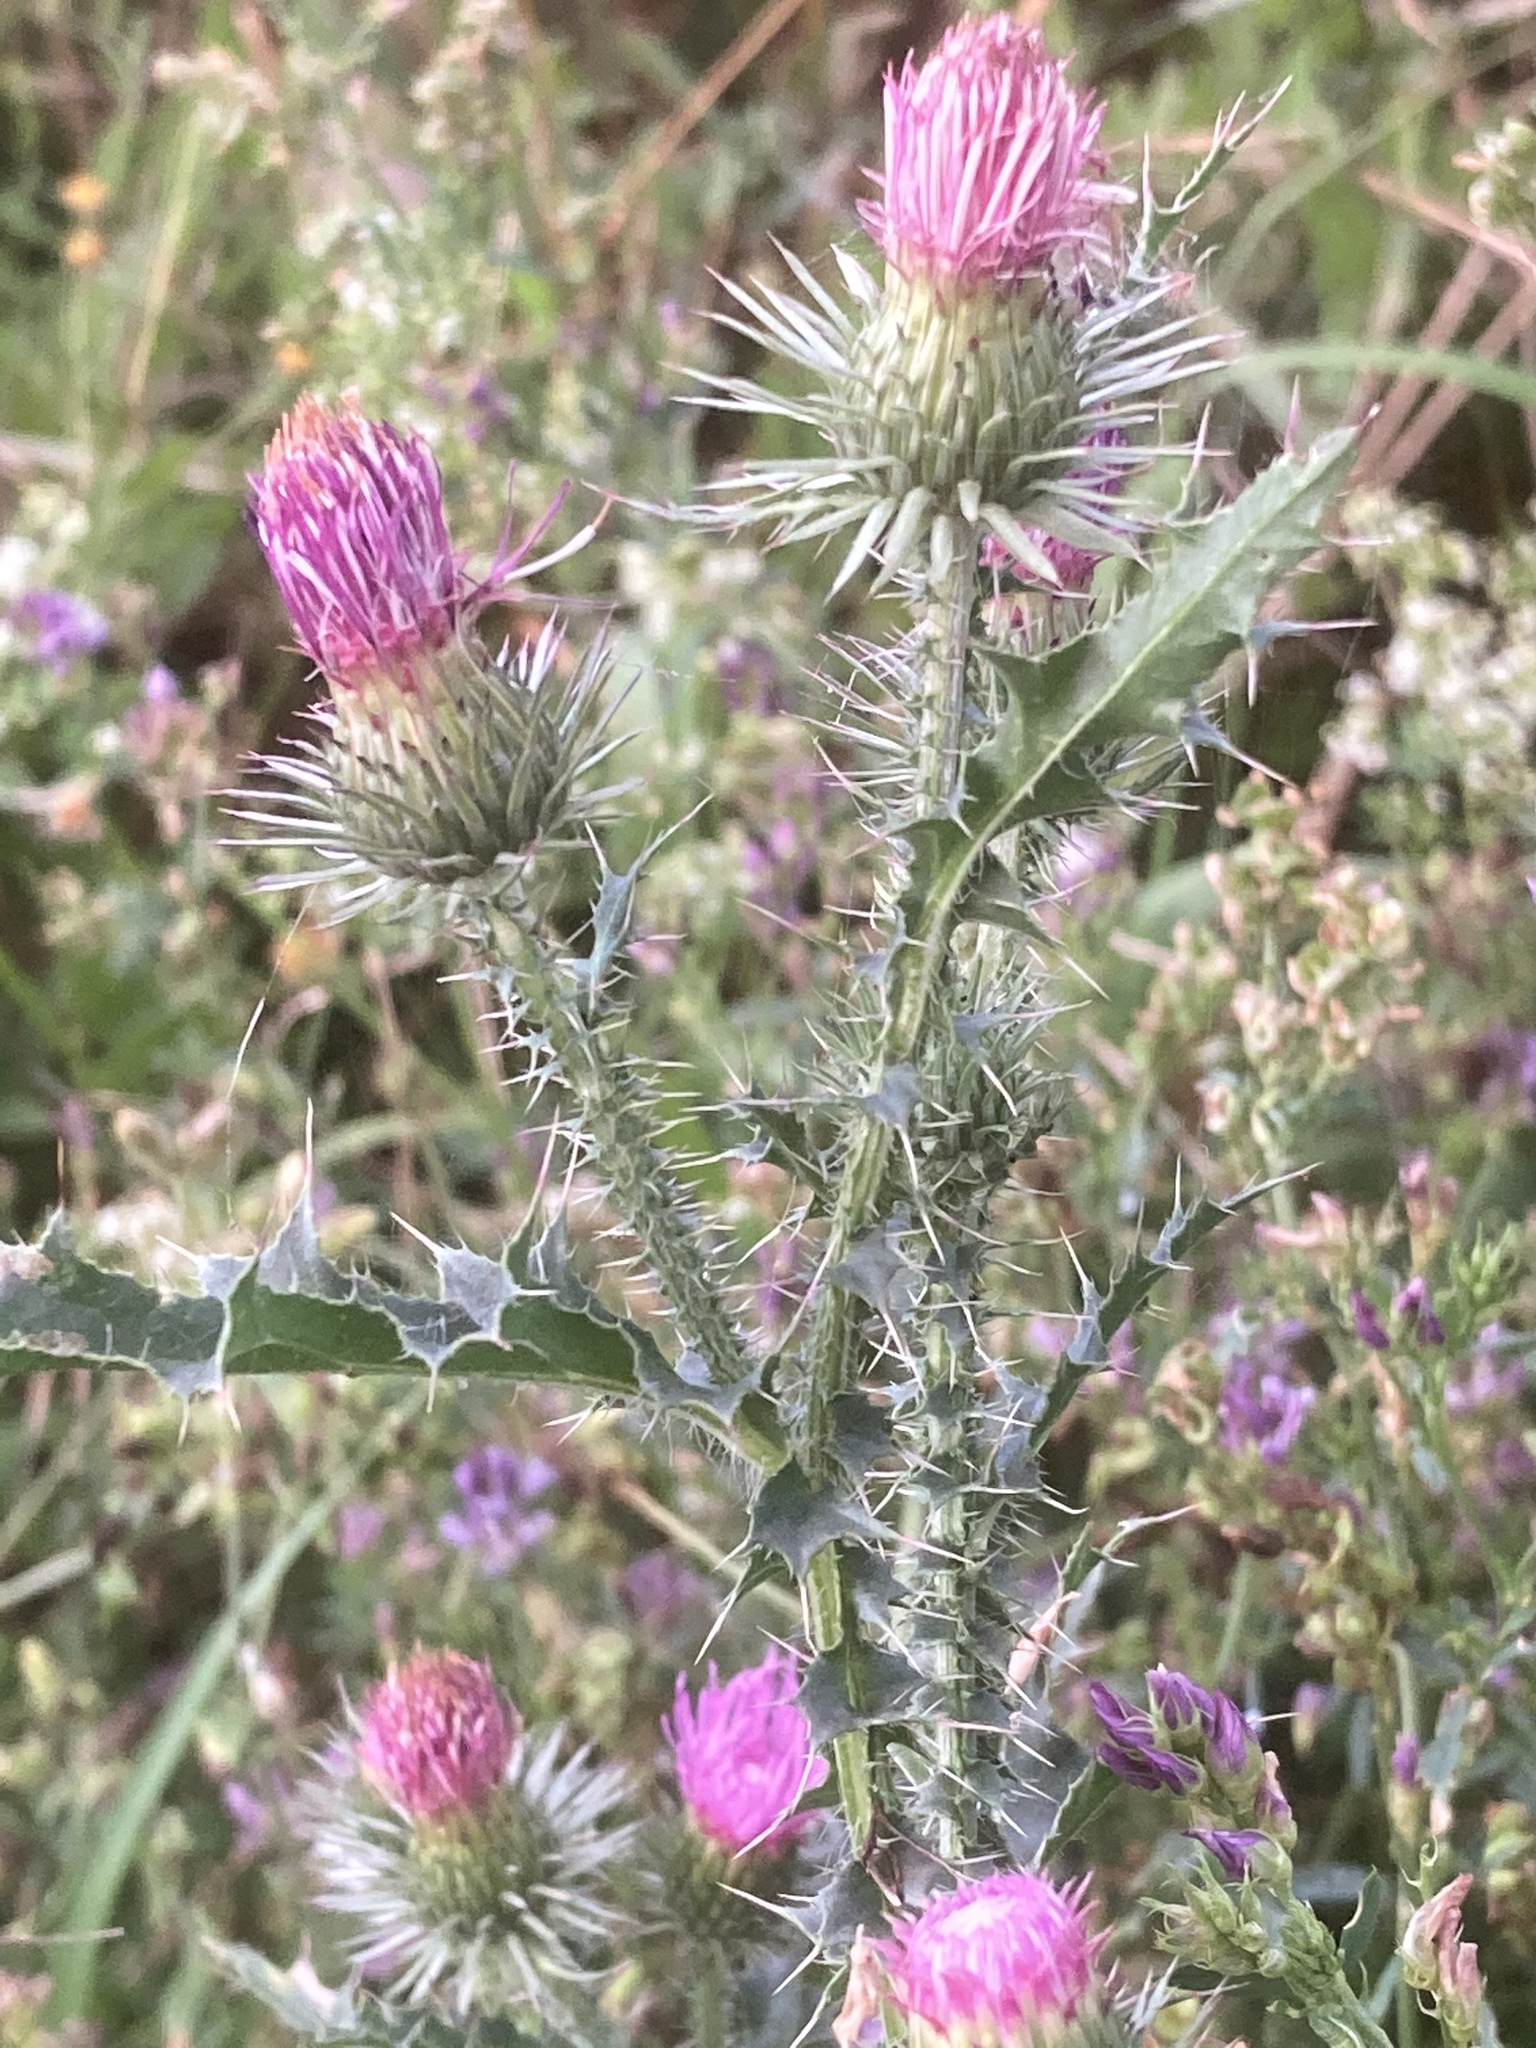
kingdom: Plantae
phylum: Tracheophyta
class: Magnoliopsida
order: Asterales
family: Asteraceae
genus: Carduus
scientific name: Carduus acanthoides
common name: Plumeless thistle
